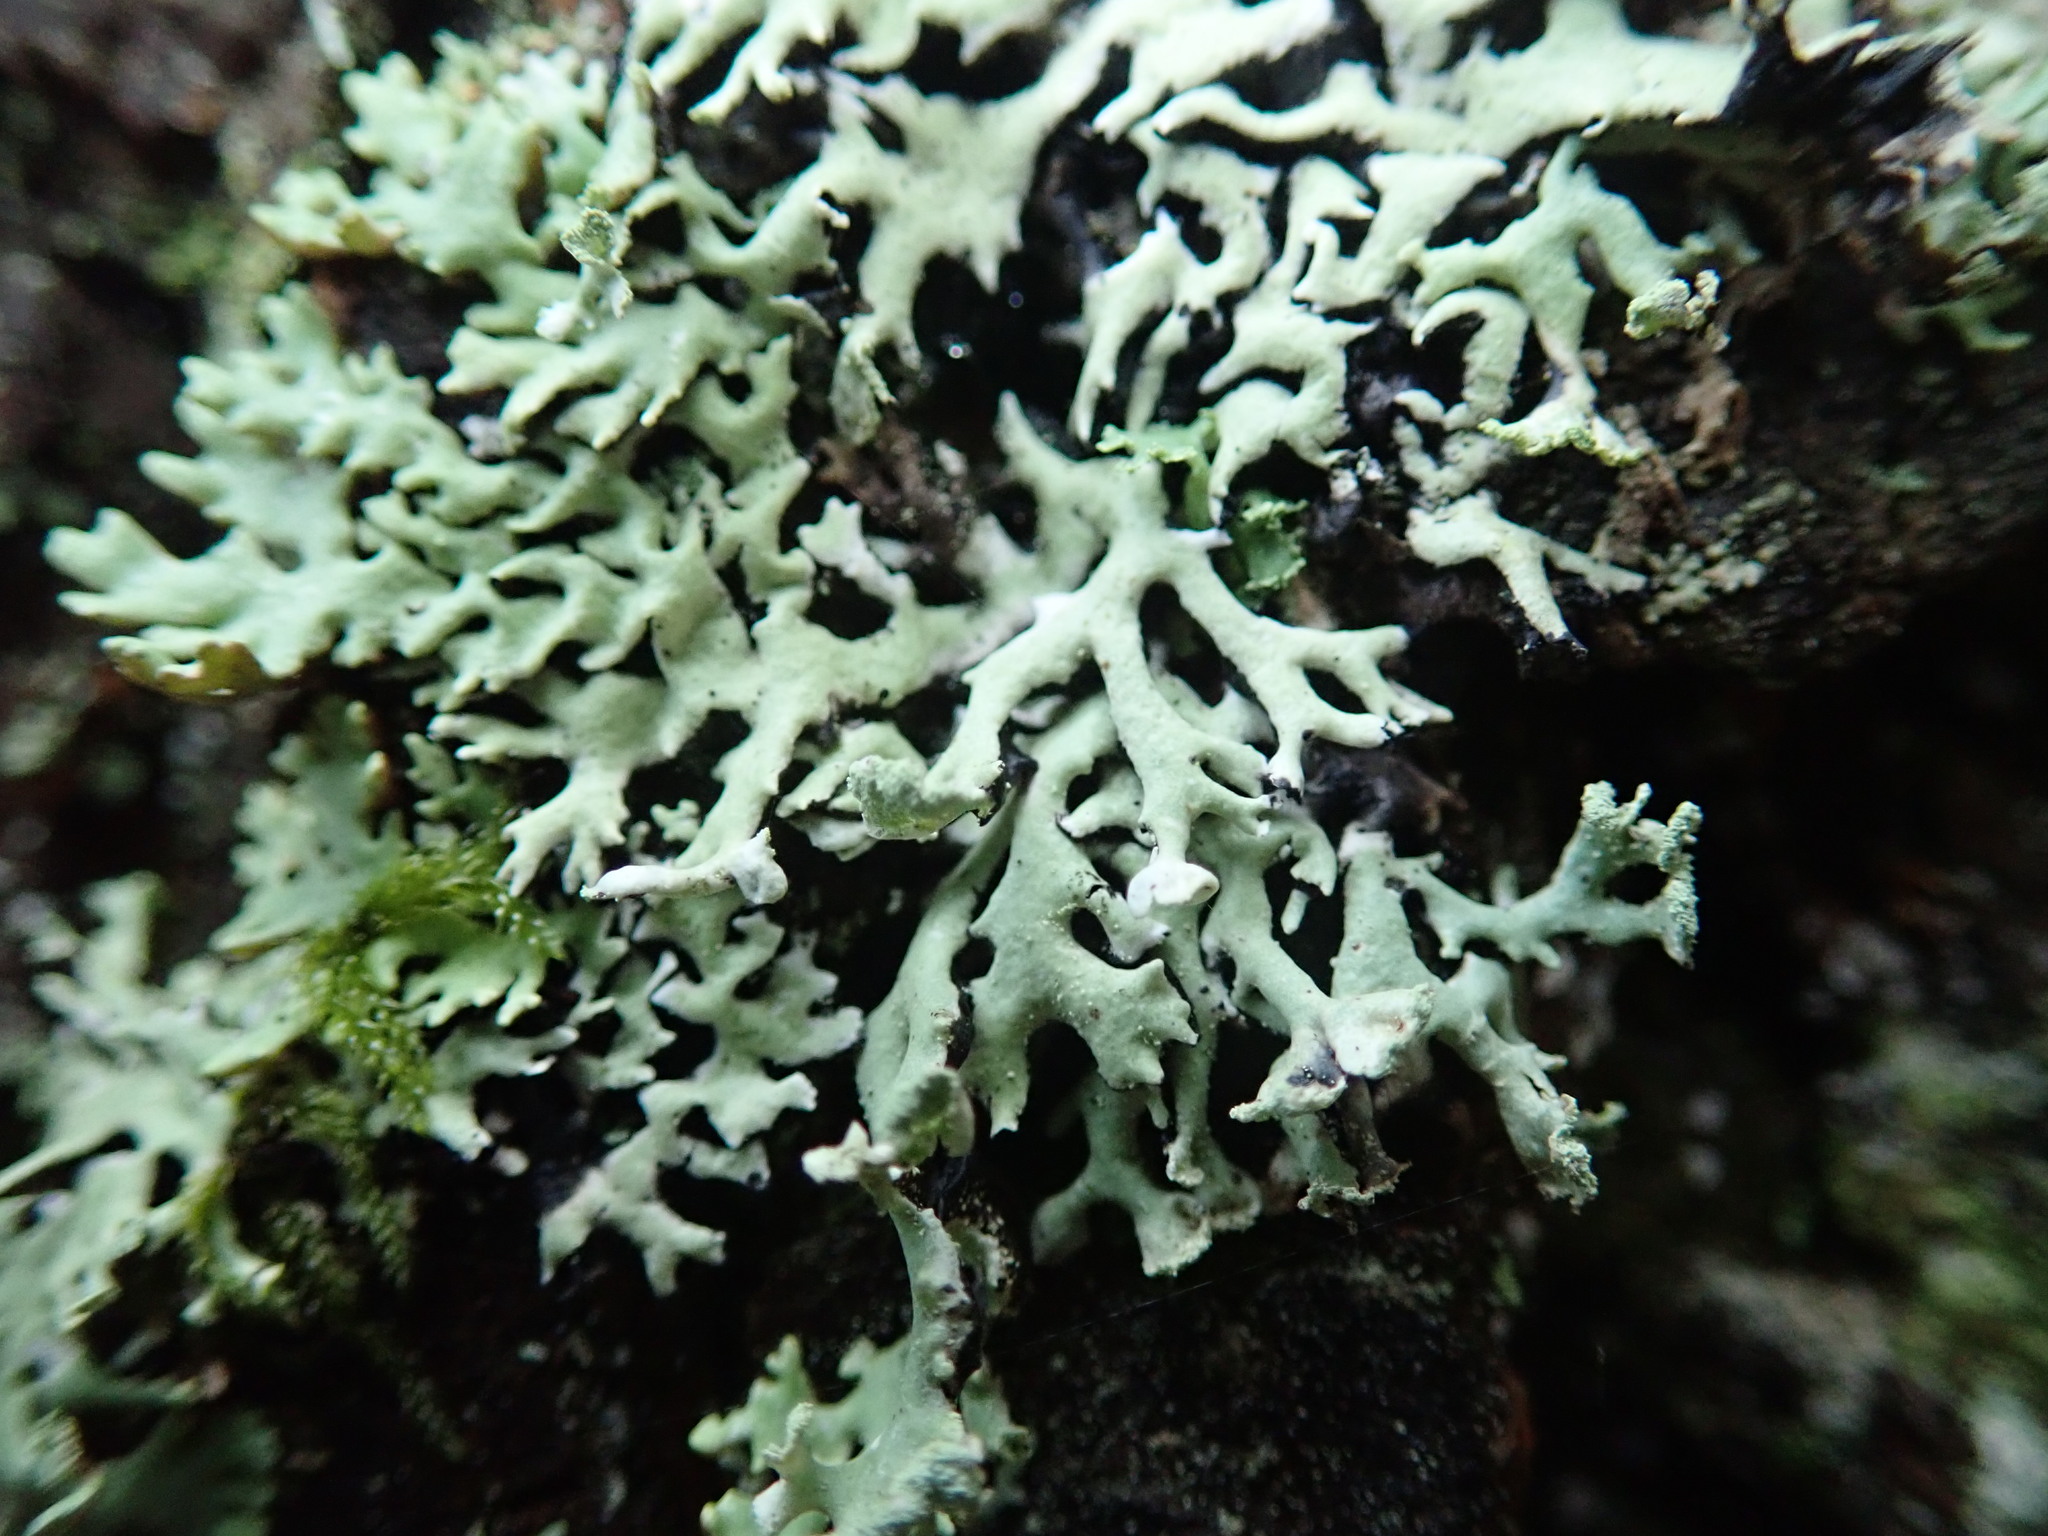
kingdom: Fungi
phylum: Ascomycota
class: Lecanoromycetes
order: Lecanorales
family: Parmeliaceae
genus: Hypogymnia
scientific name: Hypogymnia physodes
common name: Dark crottle
